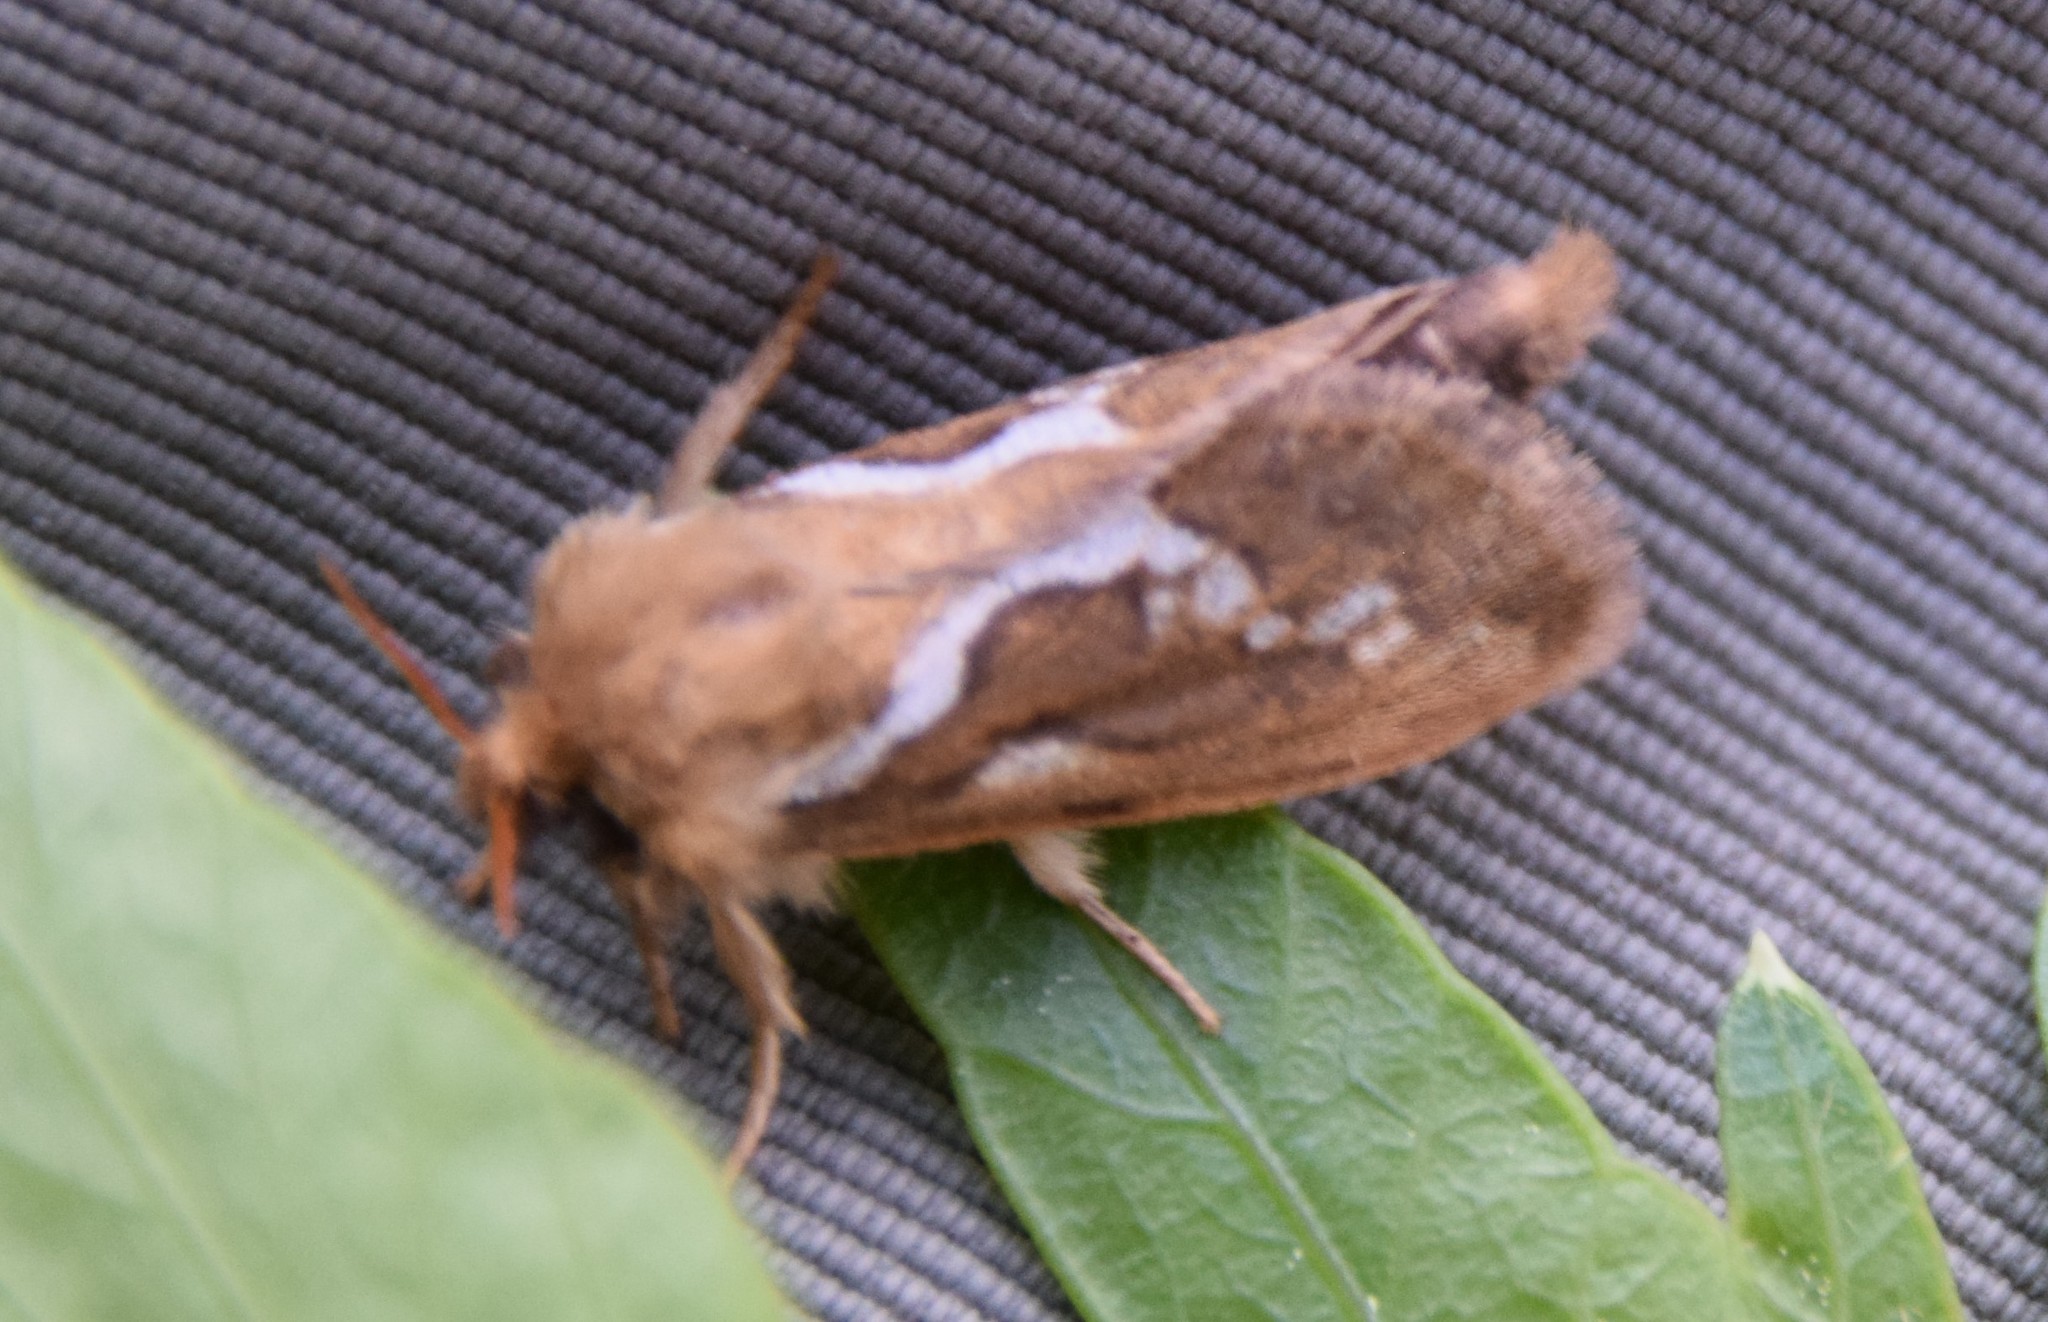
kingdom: Animalia
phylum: Arthropoda
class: Insecta
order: Lepidoptera
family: Hepialidae
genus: Korscheltellus
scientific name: Korscheltellus lupulina
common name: Common swift
